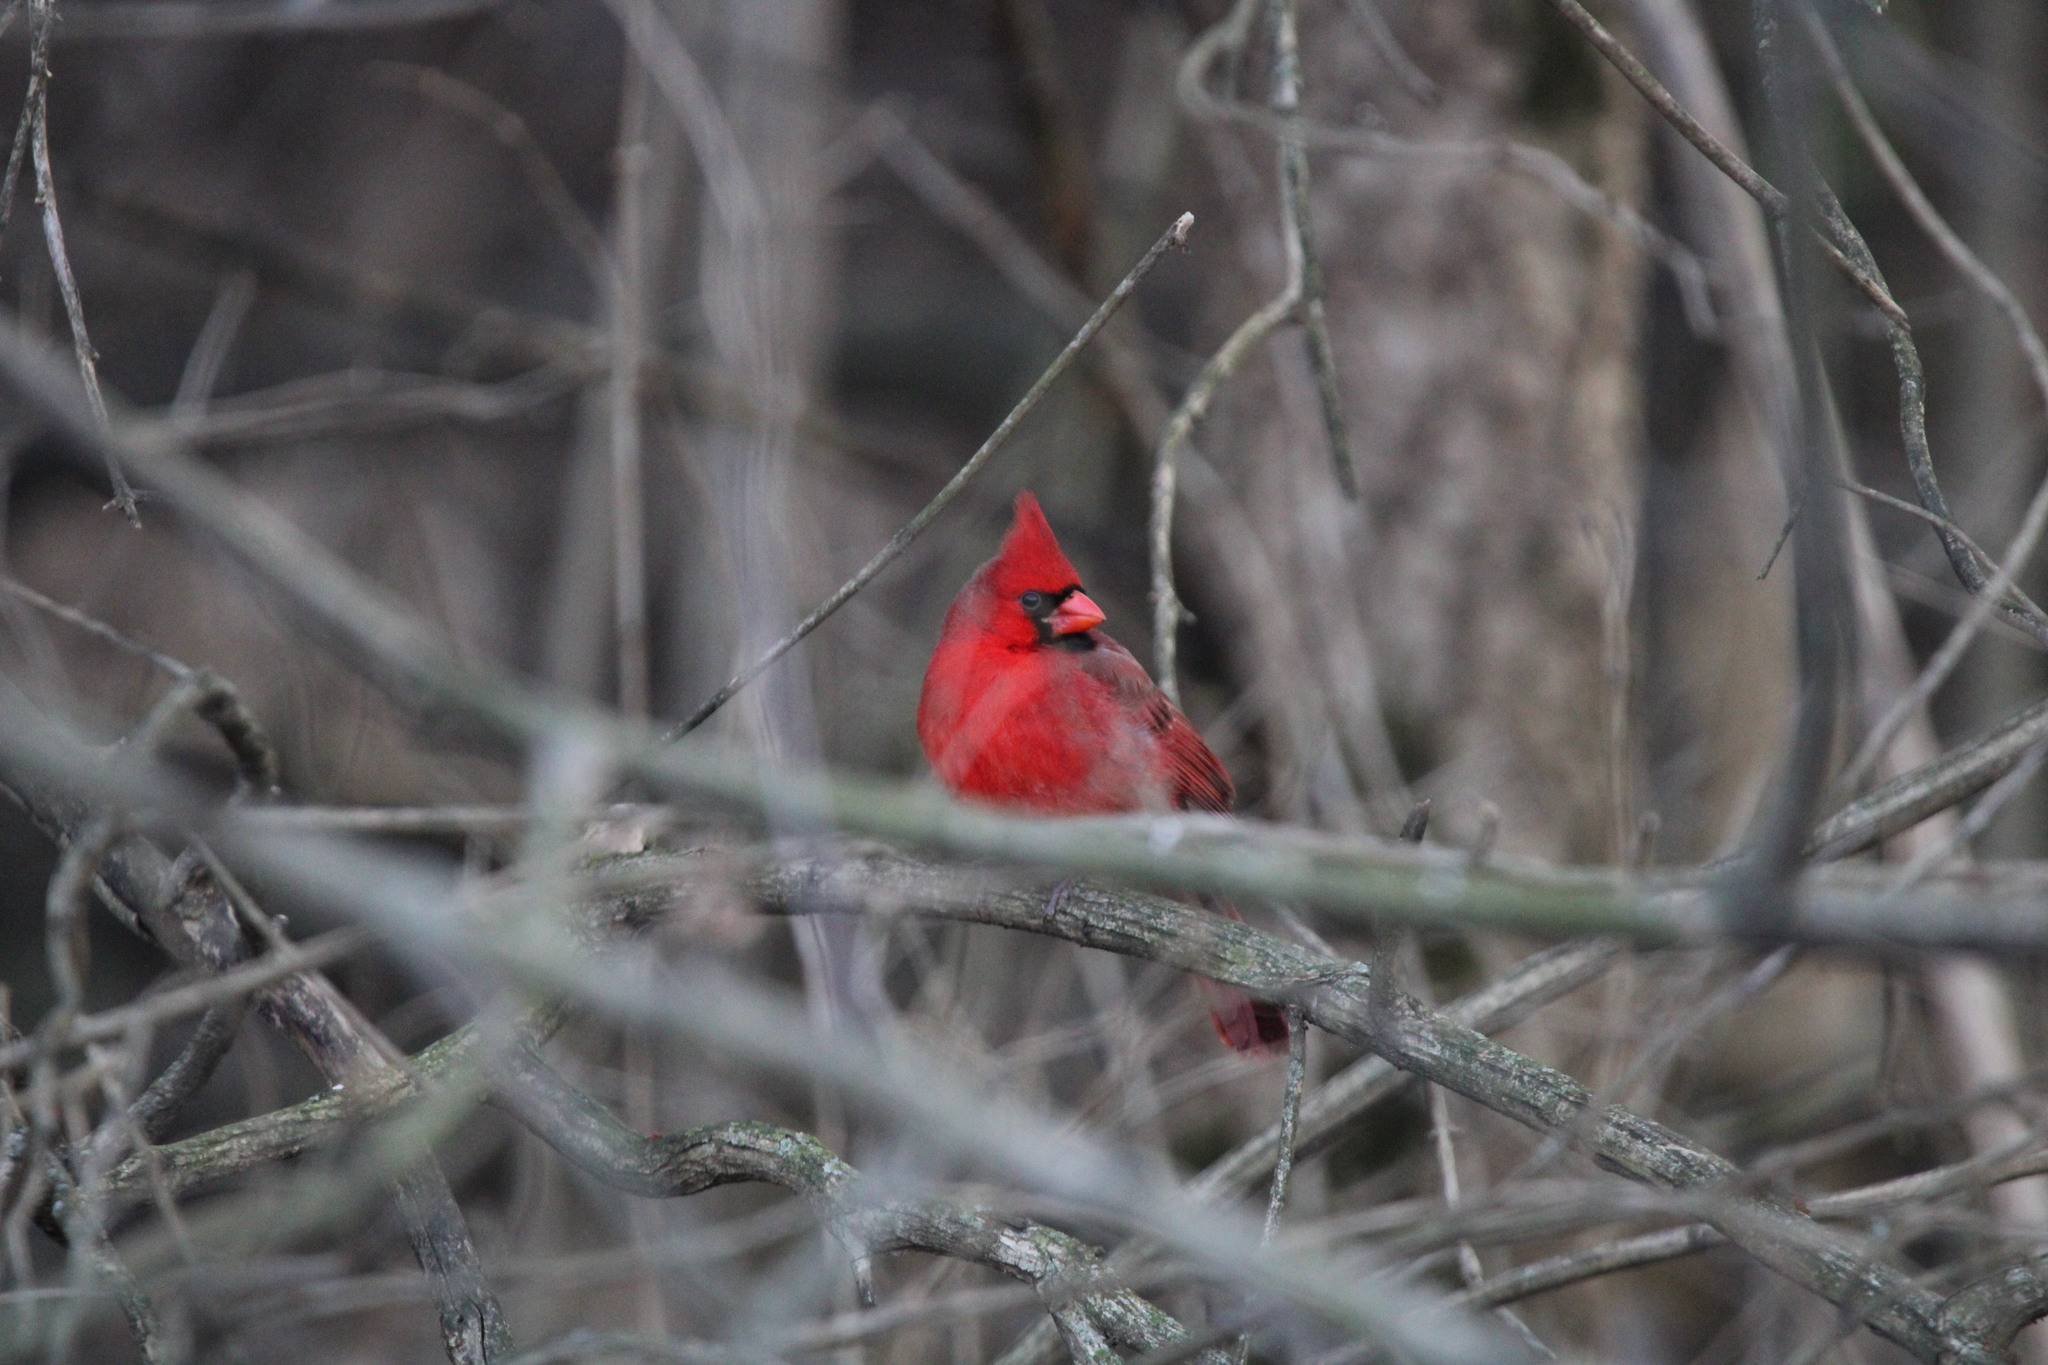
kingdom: Animalia
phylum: Chordata
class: Aves
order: Passeriformes
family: Cardinalidae
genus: Cardinalis
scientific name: Cardinalis cardinalis
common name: Northern cardinal
